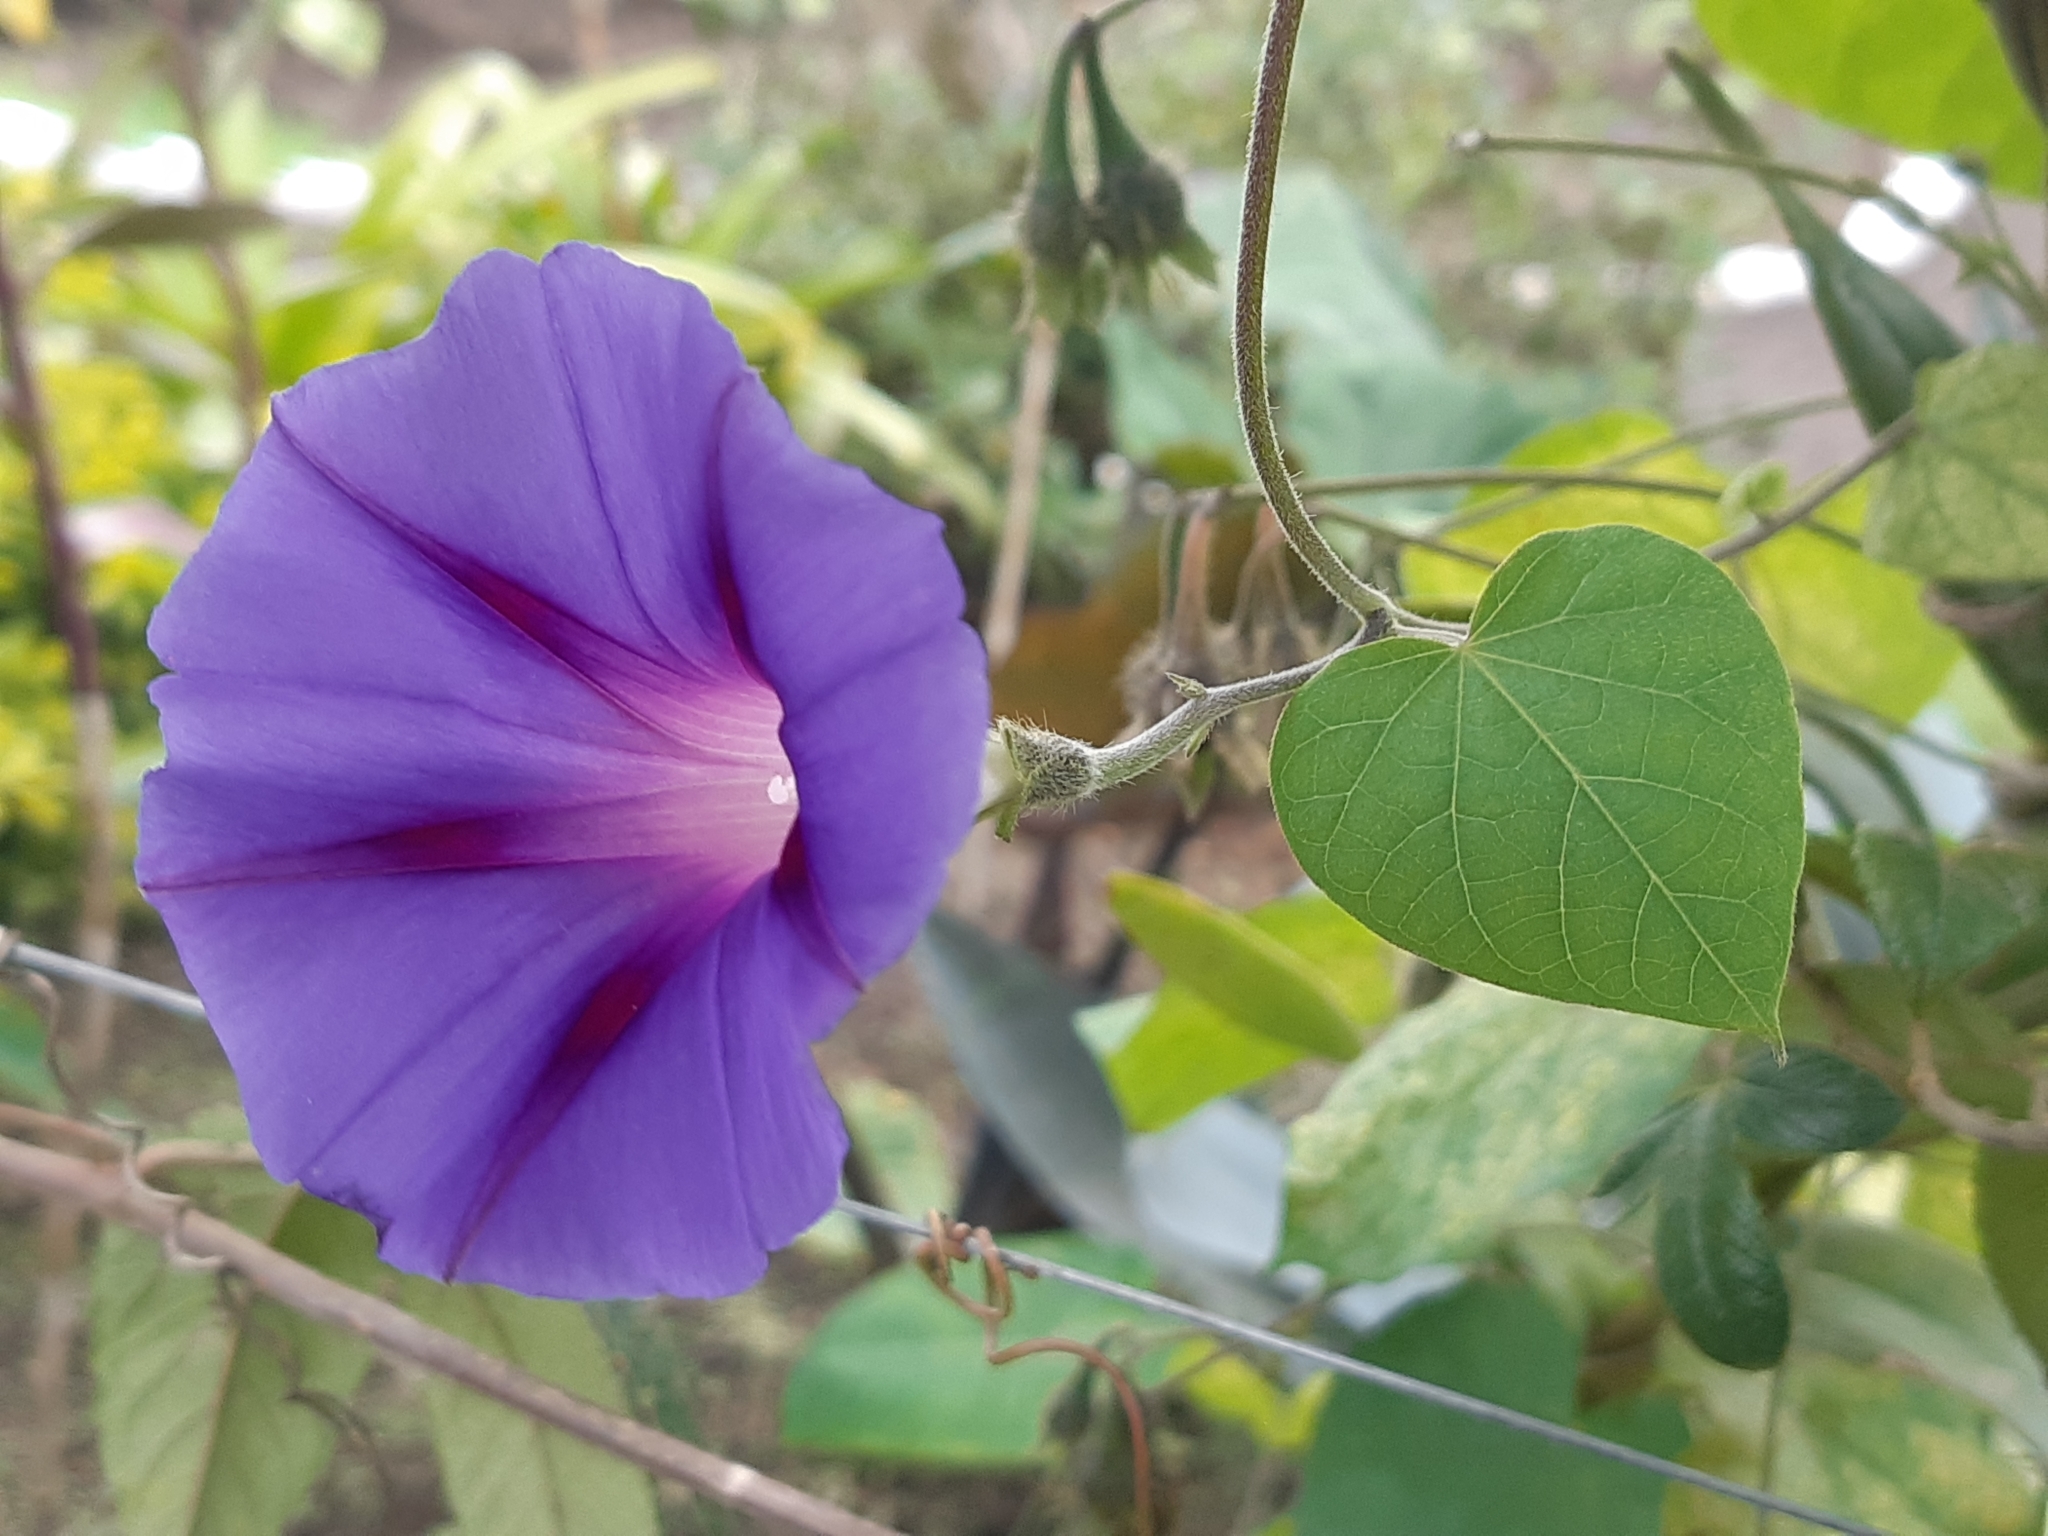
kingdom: Plantae
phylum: Tracheophyta
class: Magnoliopsida
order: Solanales
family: Convolvulaceae
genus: Ipomoea
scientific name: Ipomoea purpurea
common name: Common morning-glory
